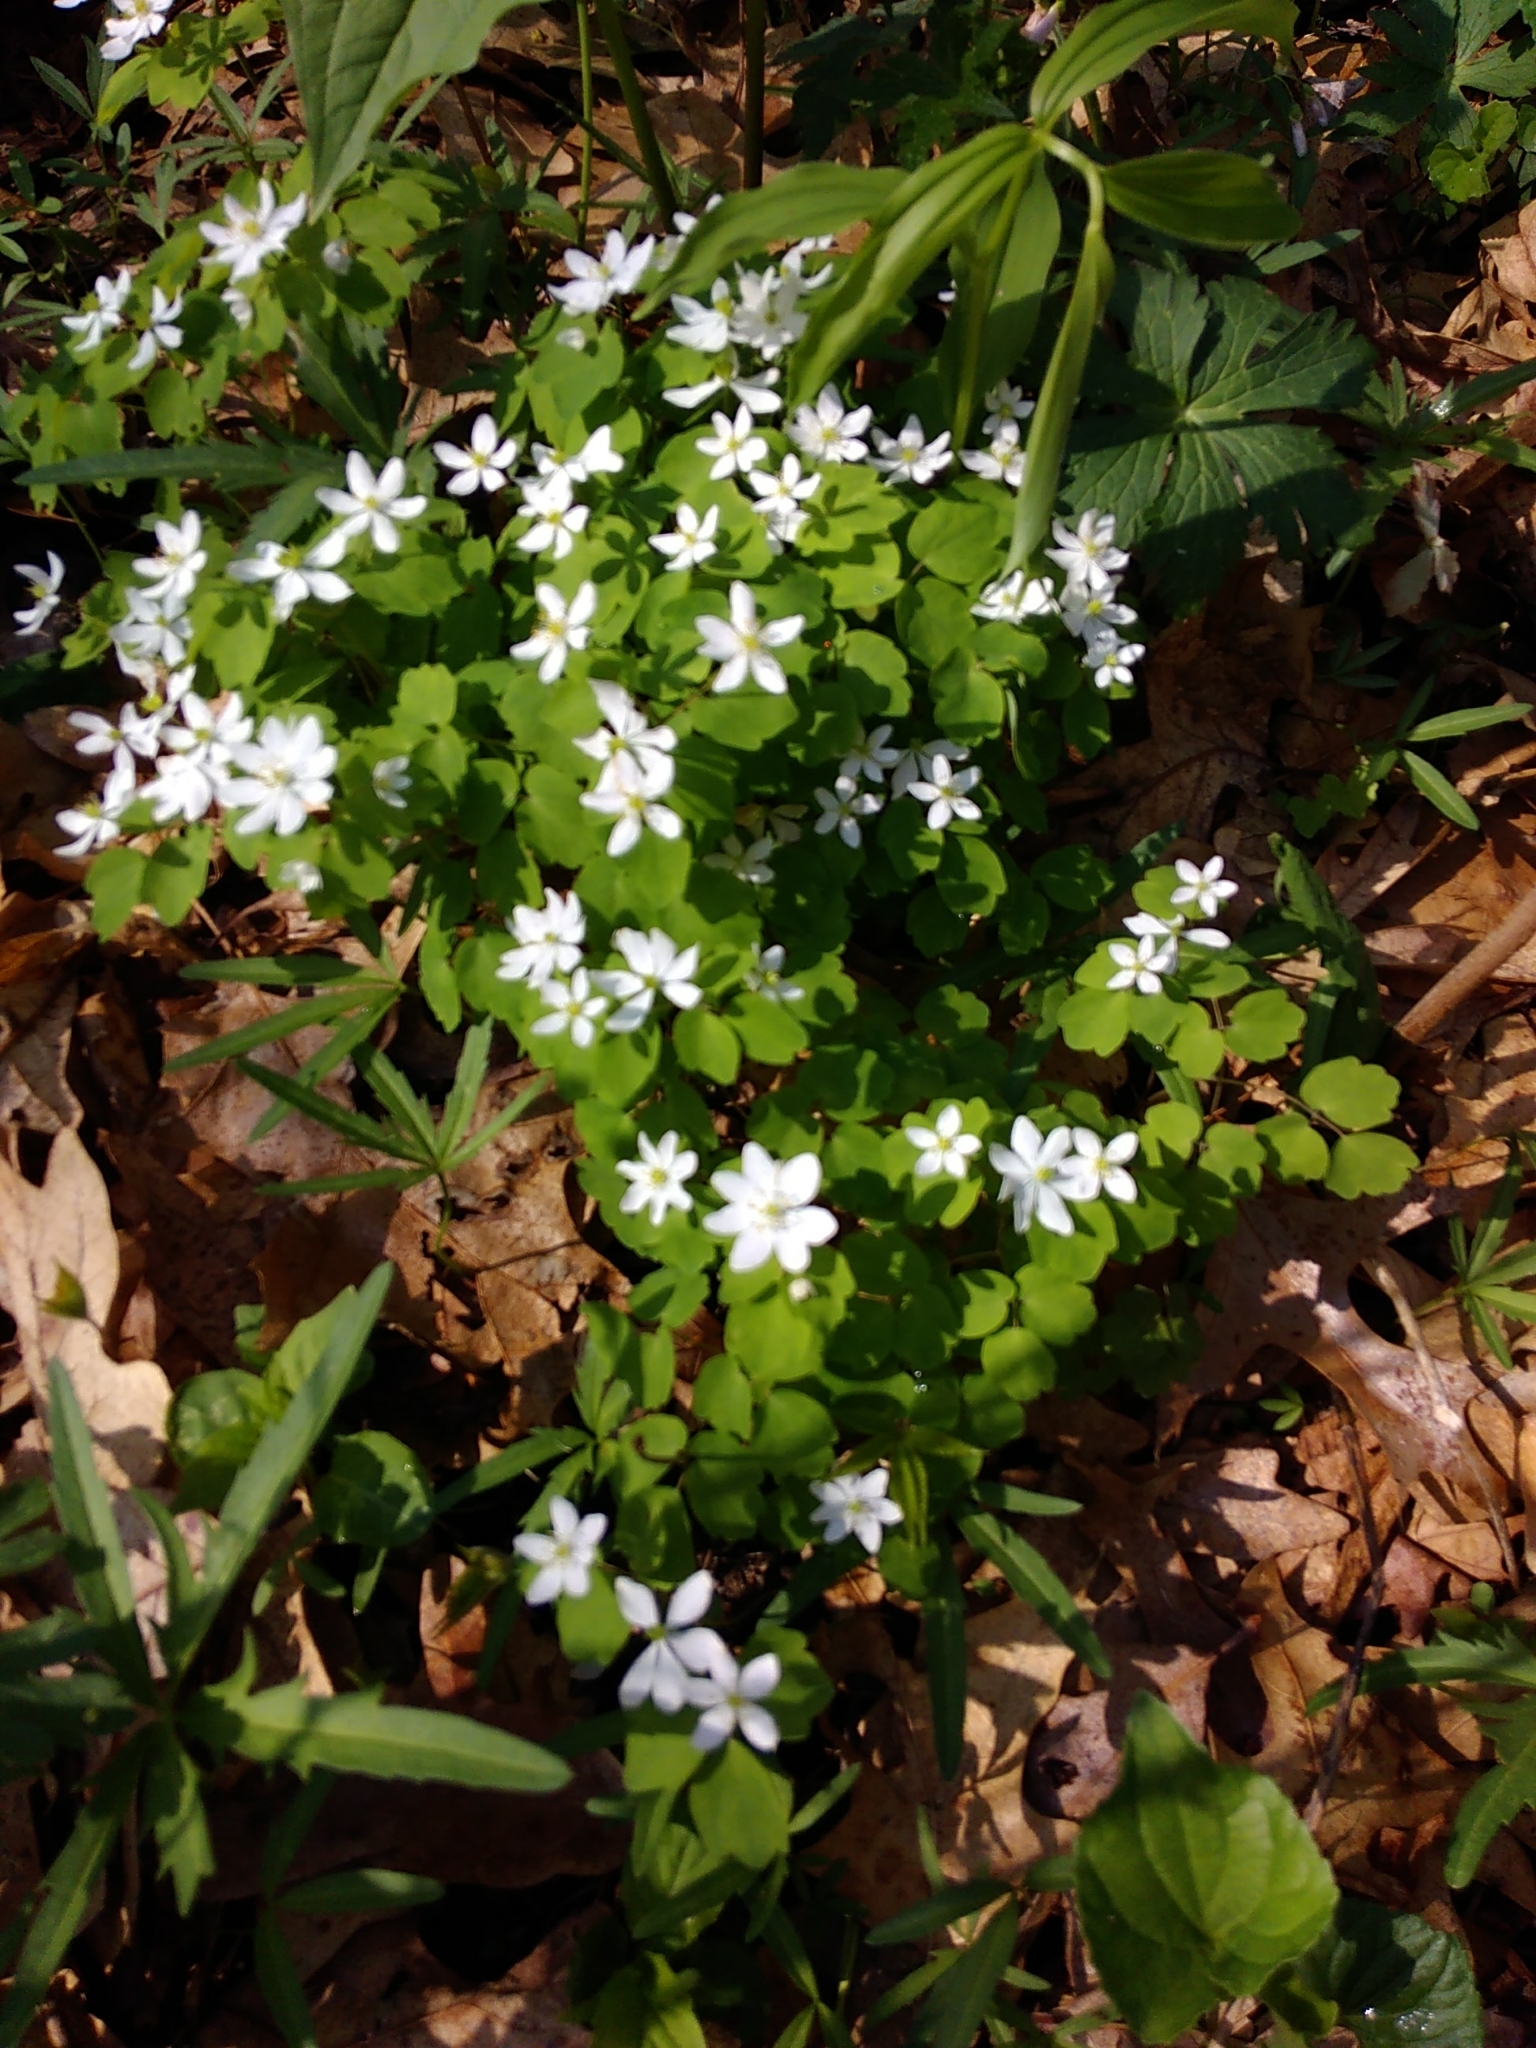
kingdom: Plantae
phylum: Tracheophyta
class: Magnoliopsida
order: Ranunculales
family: Ranunculaceae
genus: Thalictrum
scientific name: Thalictrum thalictroides
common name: Rue-anemone
